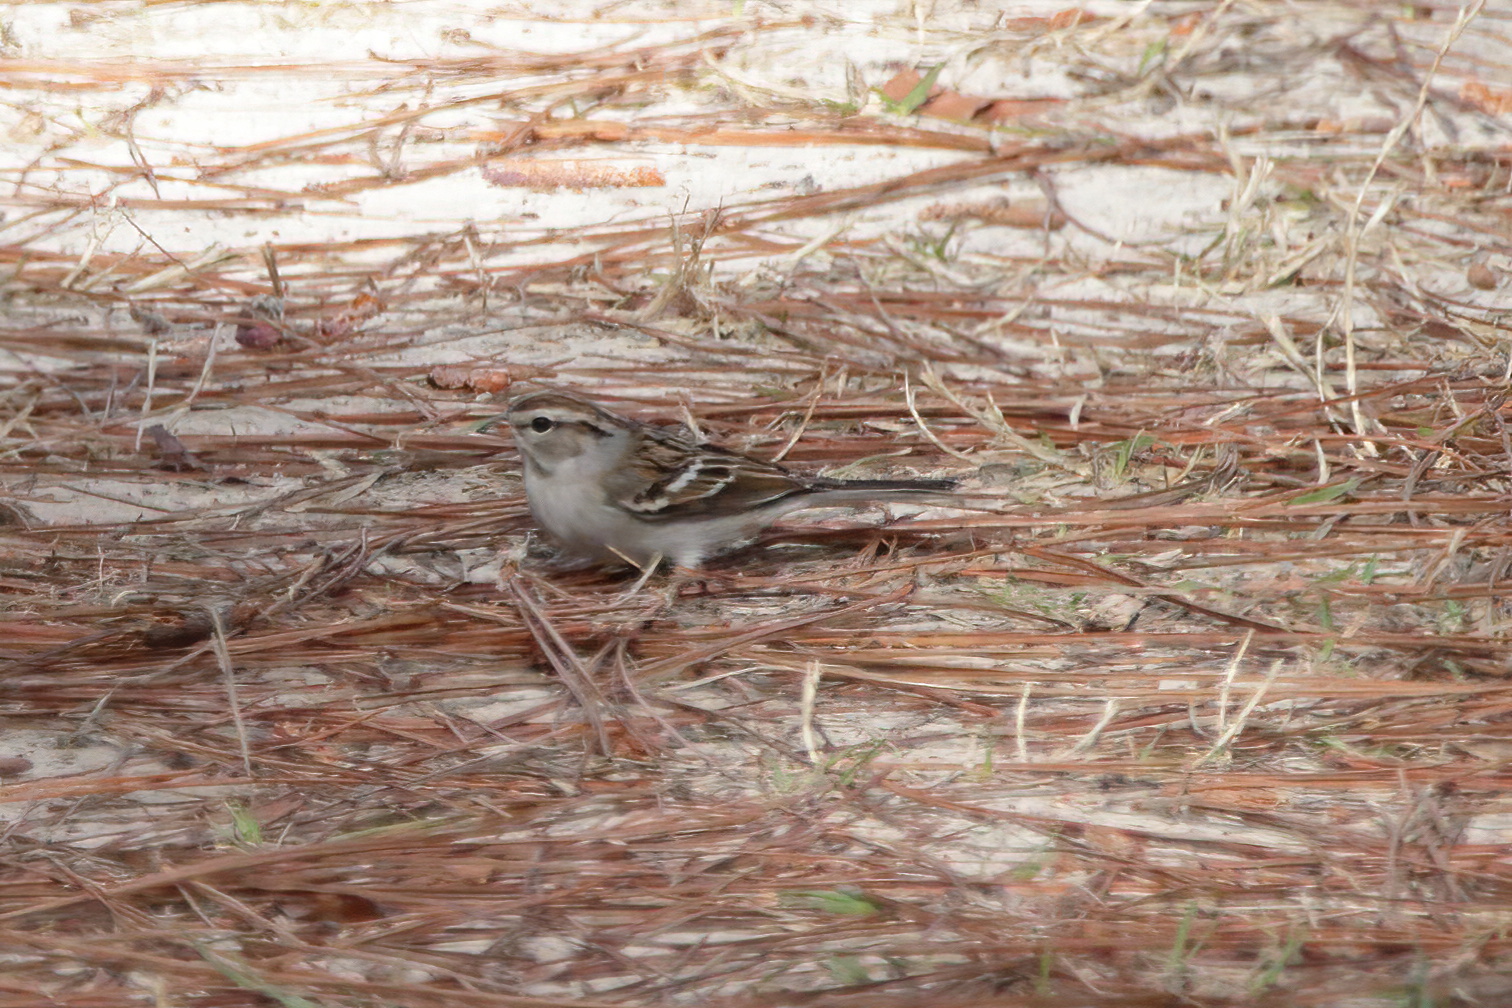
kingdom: Animalia
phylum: Chordata
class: Aves
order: Passeriformes
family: Passerellidae
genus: Spizella
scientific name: Spizella passerina
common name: Chipping sparrow
